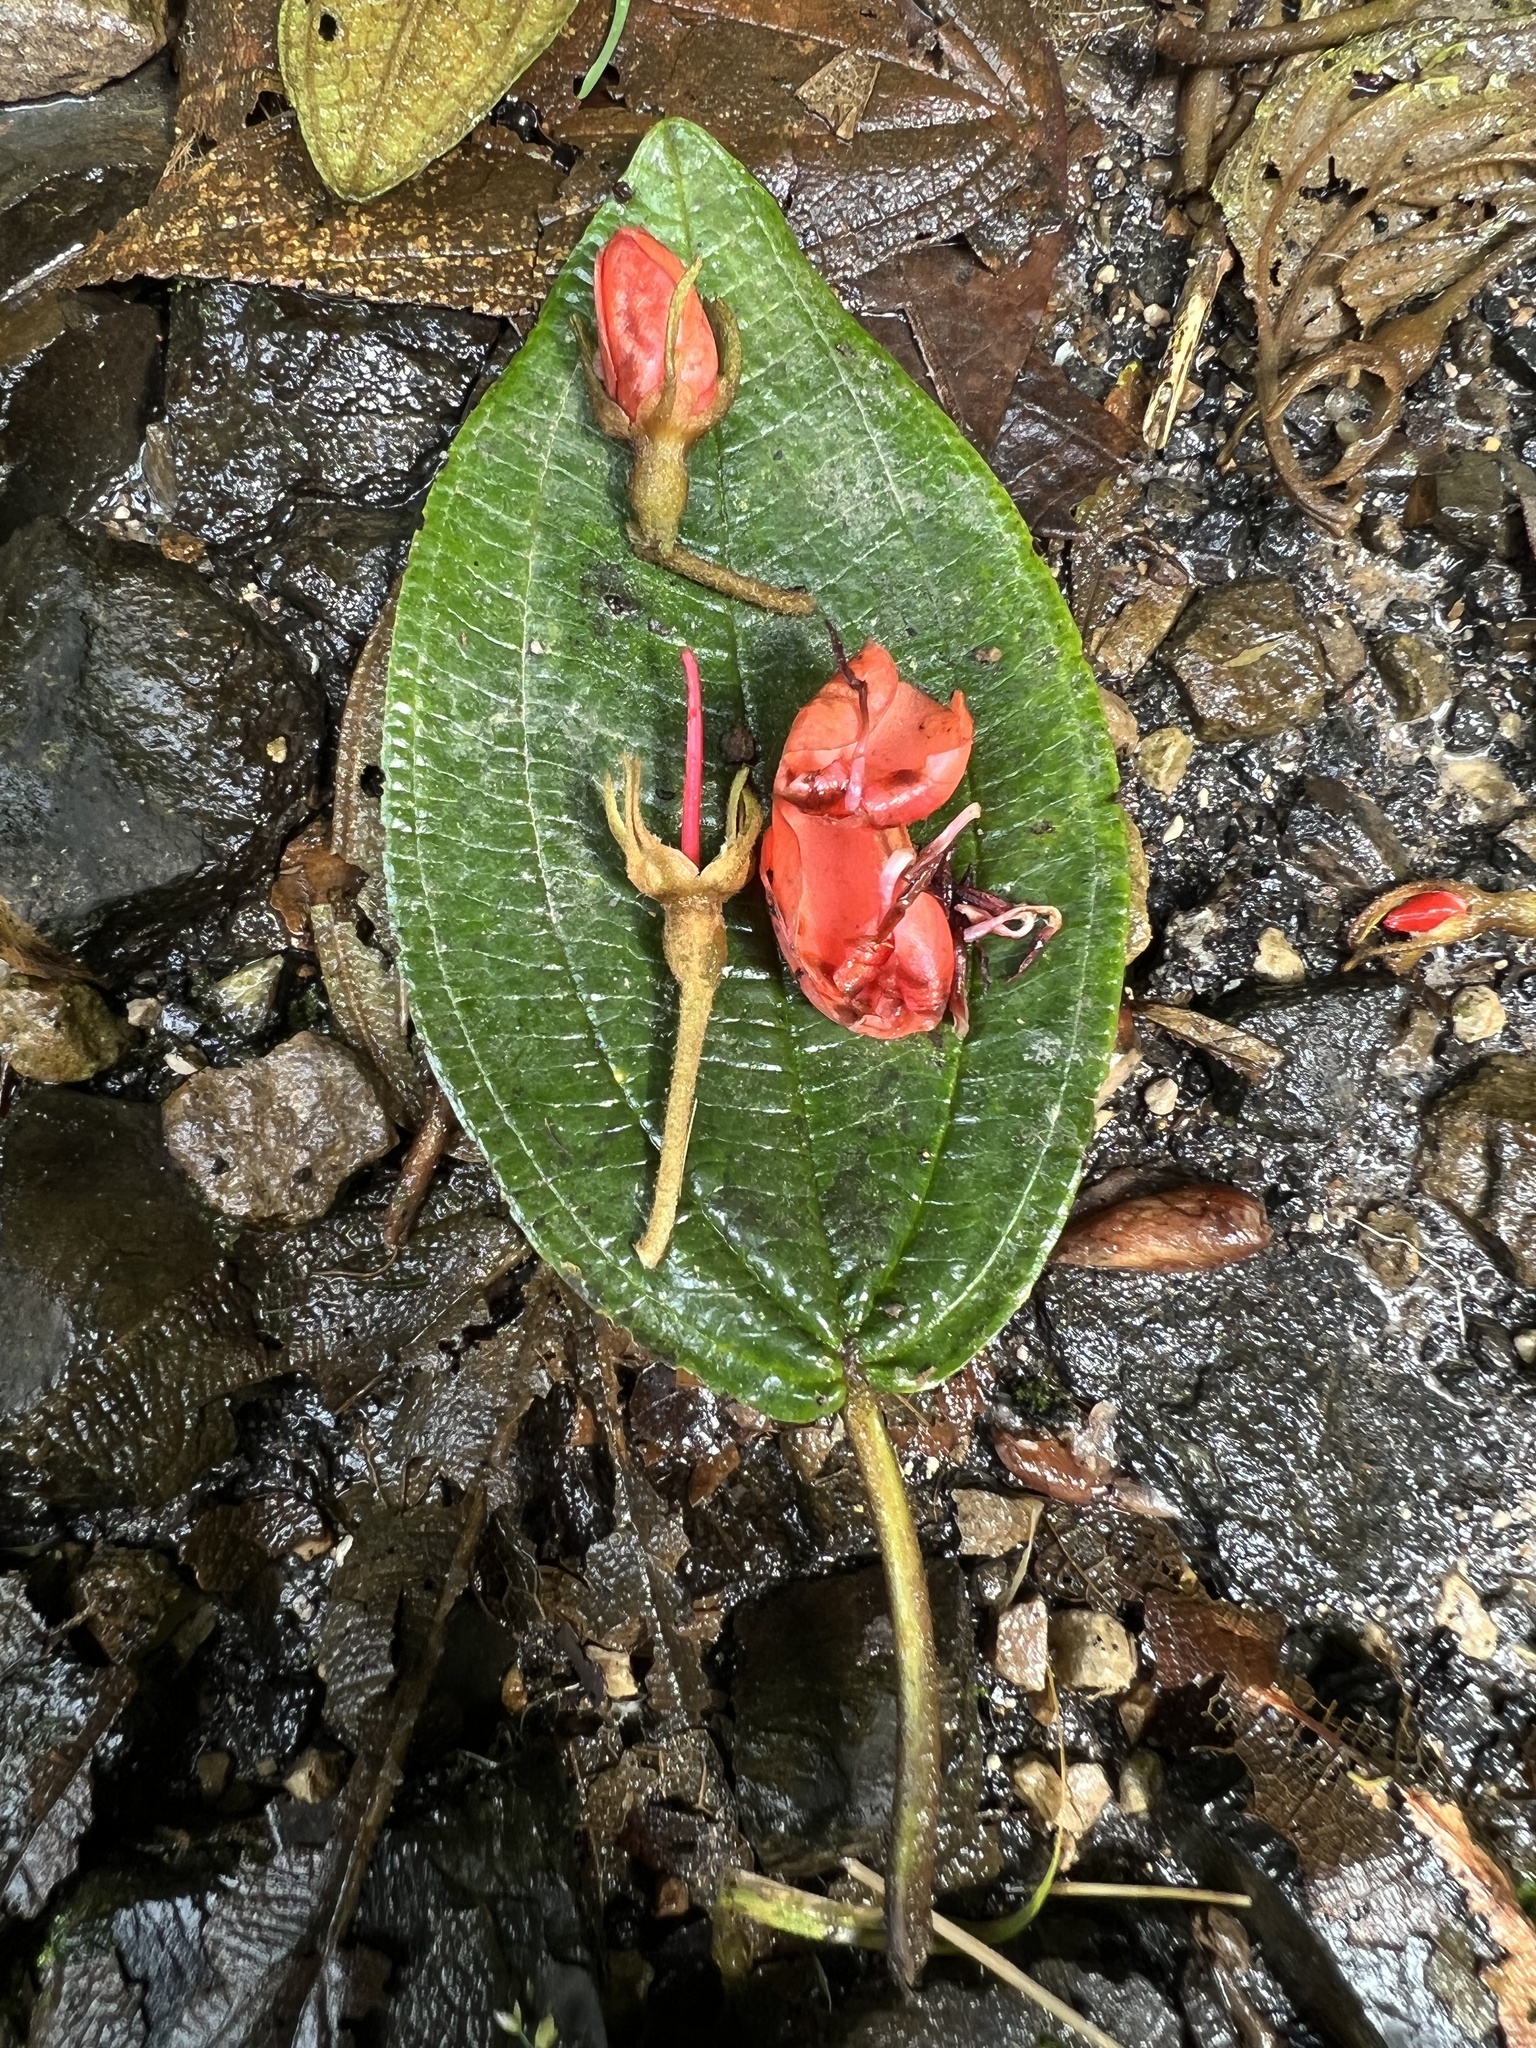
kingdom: Plantae
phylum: Tracheophyta
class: Magnoliopsida
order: Myrtales
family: Melastomataceae
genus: Meriania
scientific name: Meriania colombiana
